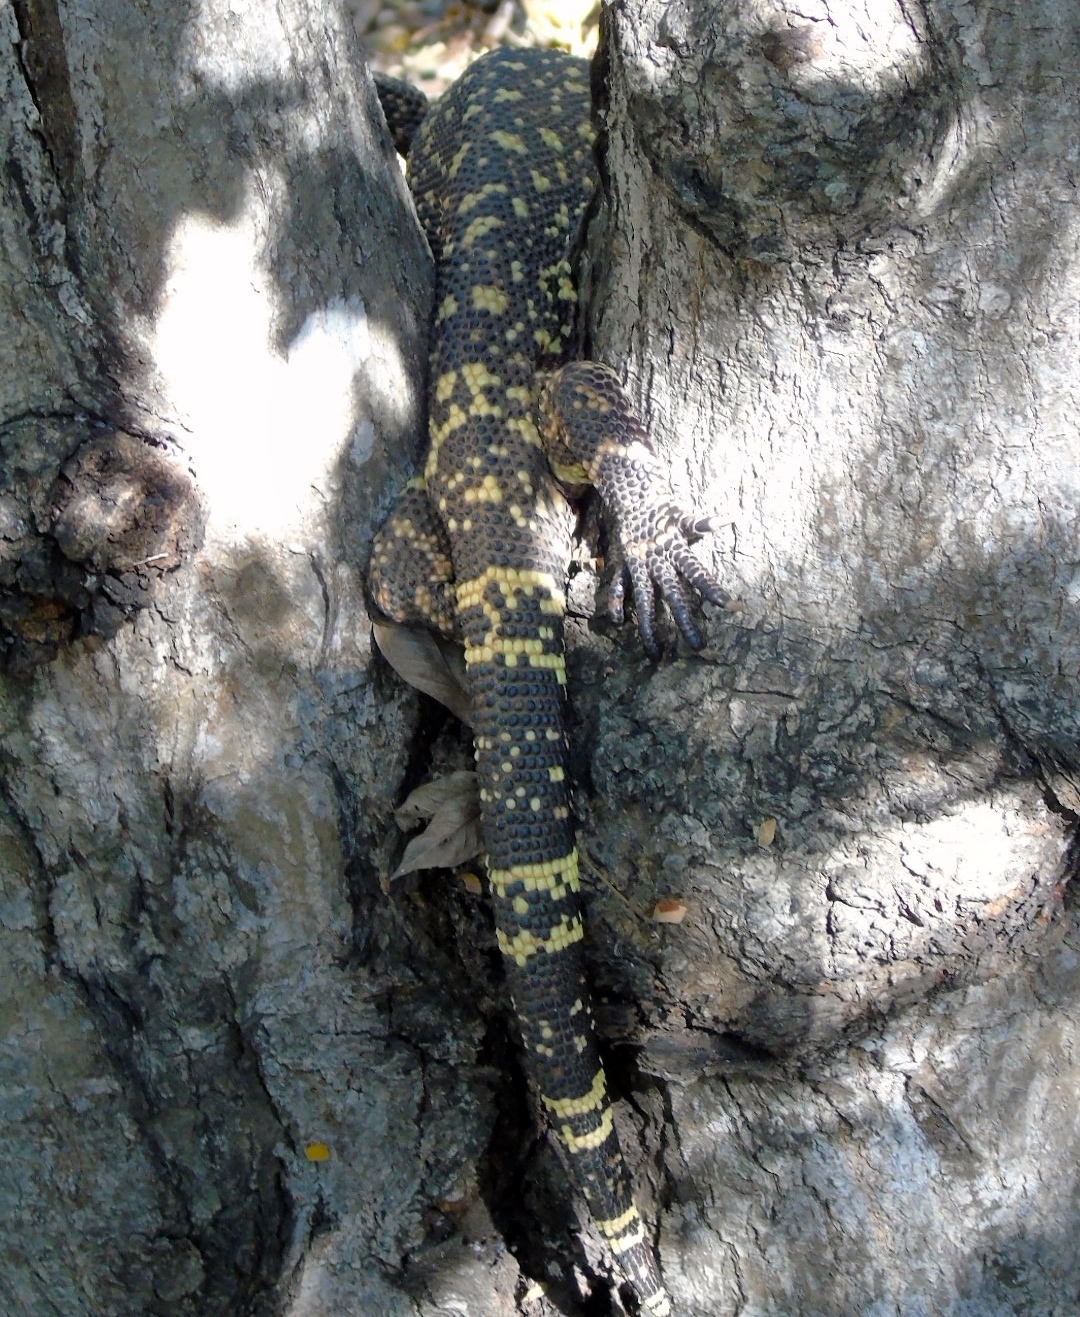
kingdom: Animalia
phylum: Chordata
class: Squamata
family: Helodermatidae
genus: Heloderma
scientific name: Heloderma horridum
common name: Mexican beaded lizard
